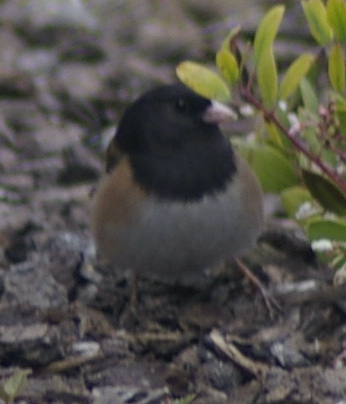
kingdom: Animalia
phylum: Chordata
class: Aves
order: Passeriformes
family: Passerellidae
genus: Junco
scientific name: Junco hyemalis
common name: Dark-eyed junco
